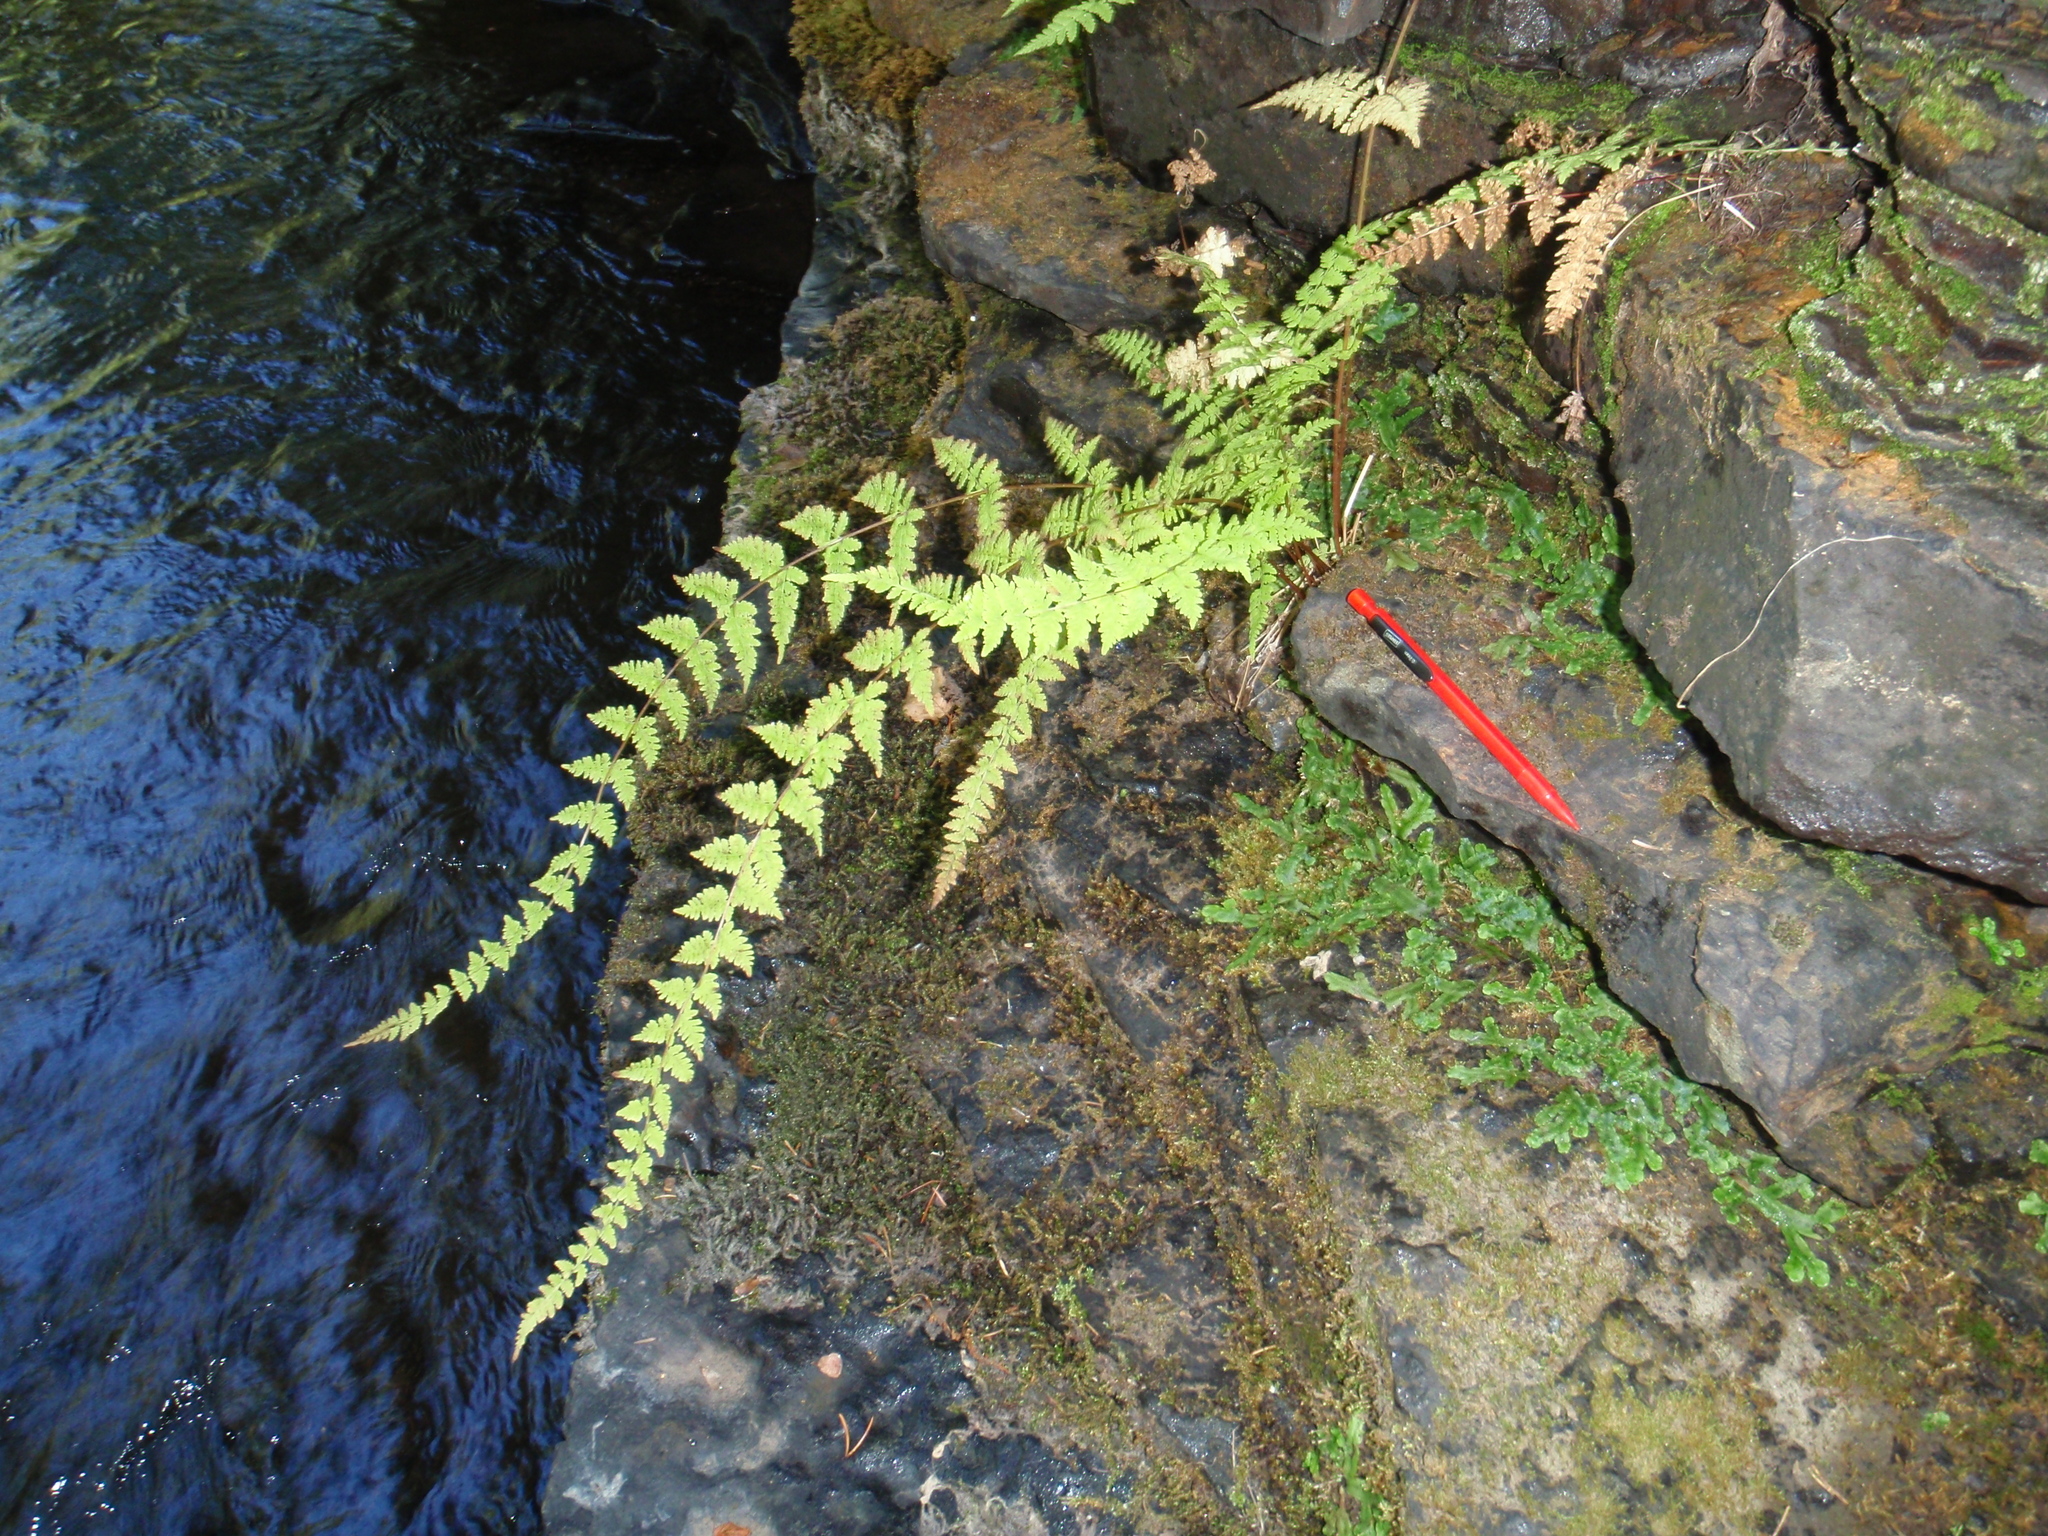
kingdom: Plantae
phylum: Tracheophyta
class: Polypodiopsida
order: Polypodiales
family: Cystopteridaceae
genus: Cystopteris
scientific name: Cystopteris bulbifera
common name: Bulblet bladder fern
